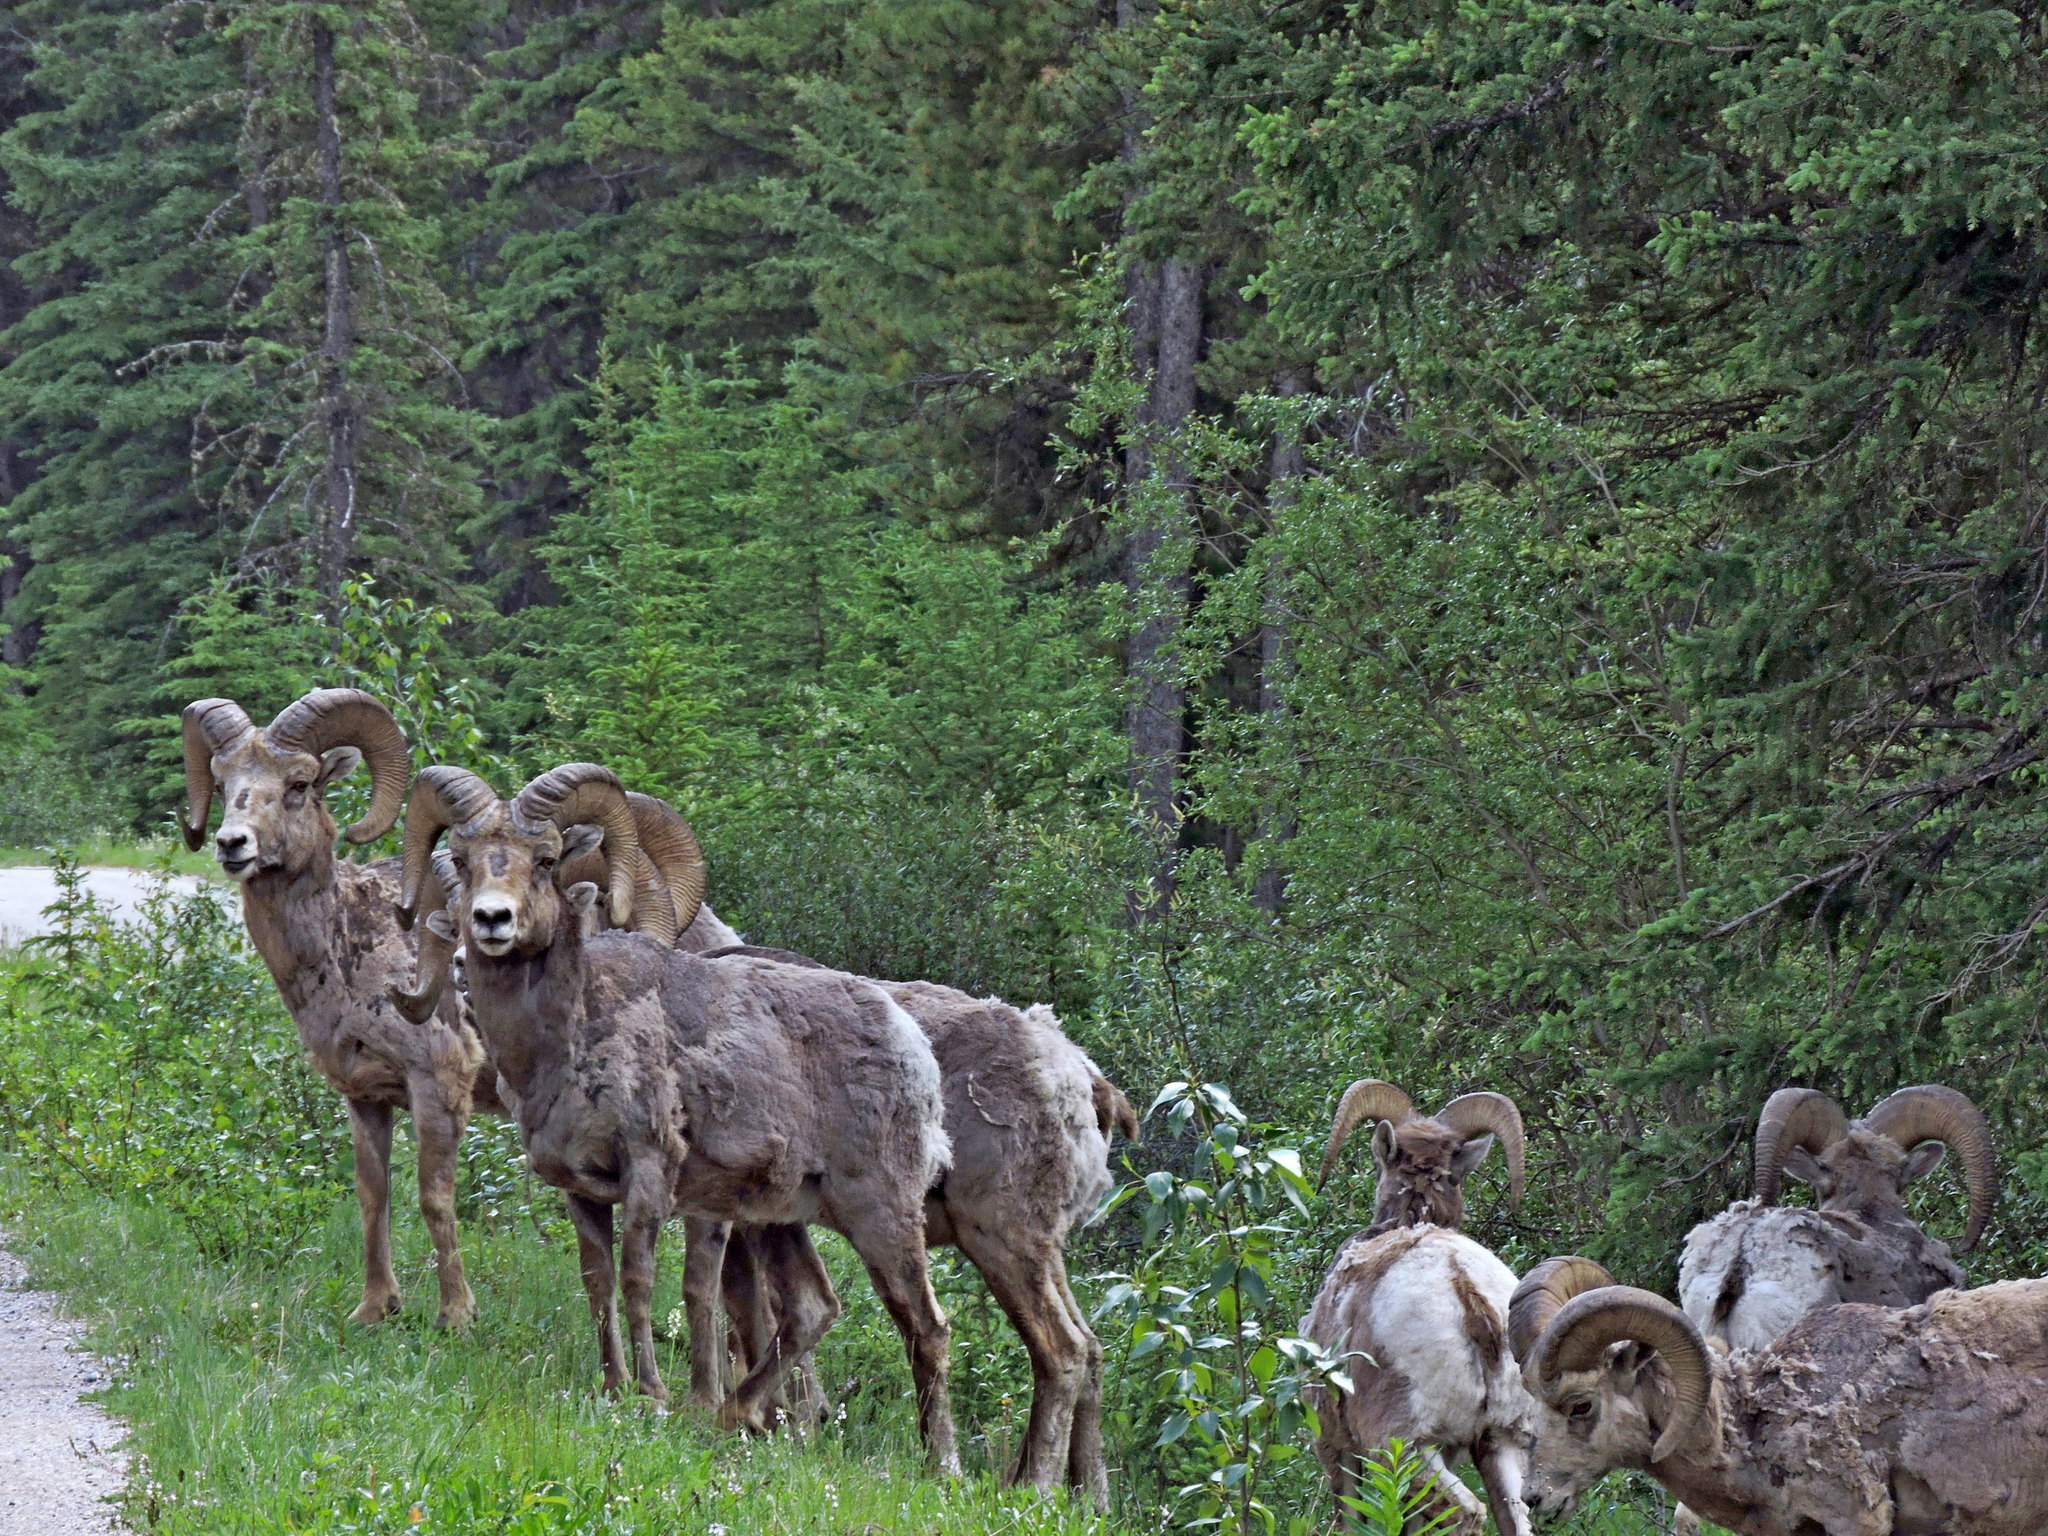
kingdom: Animalia
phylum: Chordata
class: Mammalia
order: Artiodactyla
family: Bovidae
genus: Ovis
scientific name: Ovis canadensis
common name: Bighorn sheep
